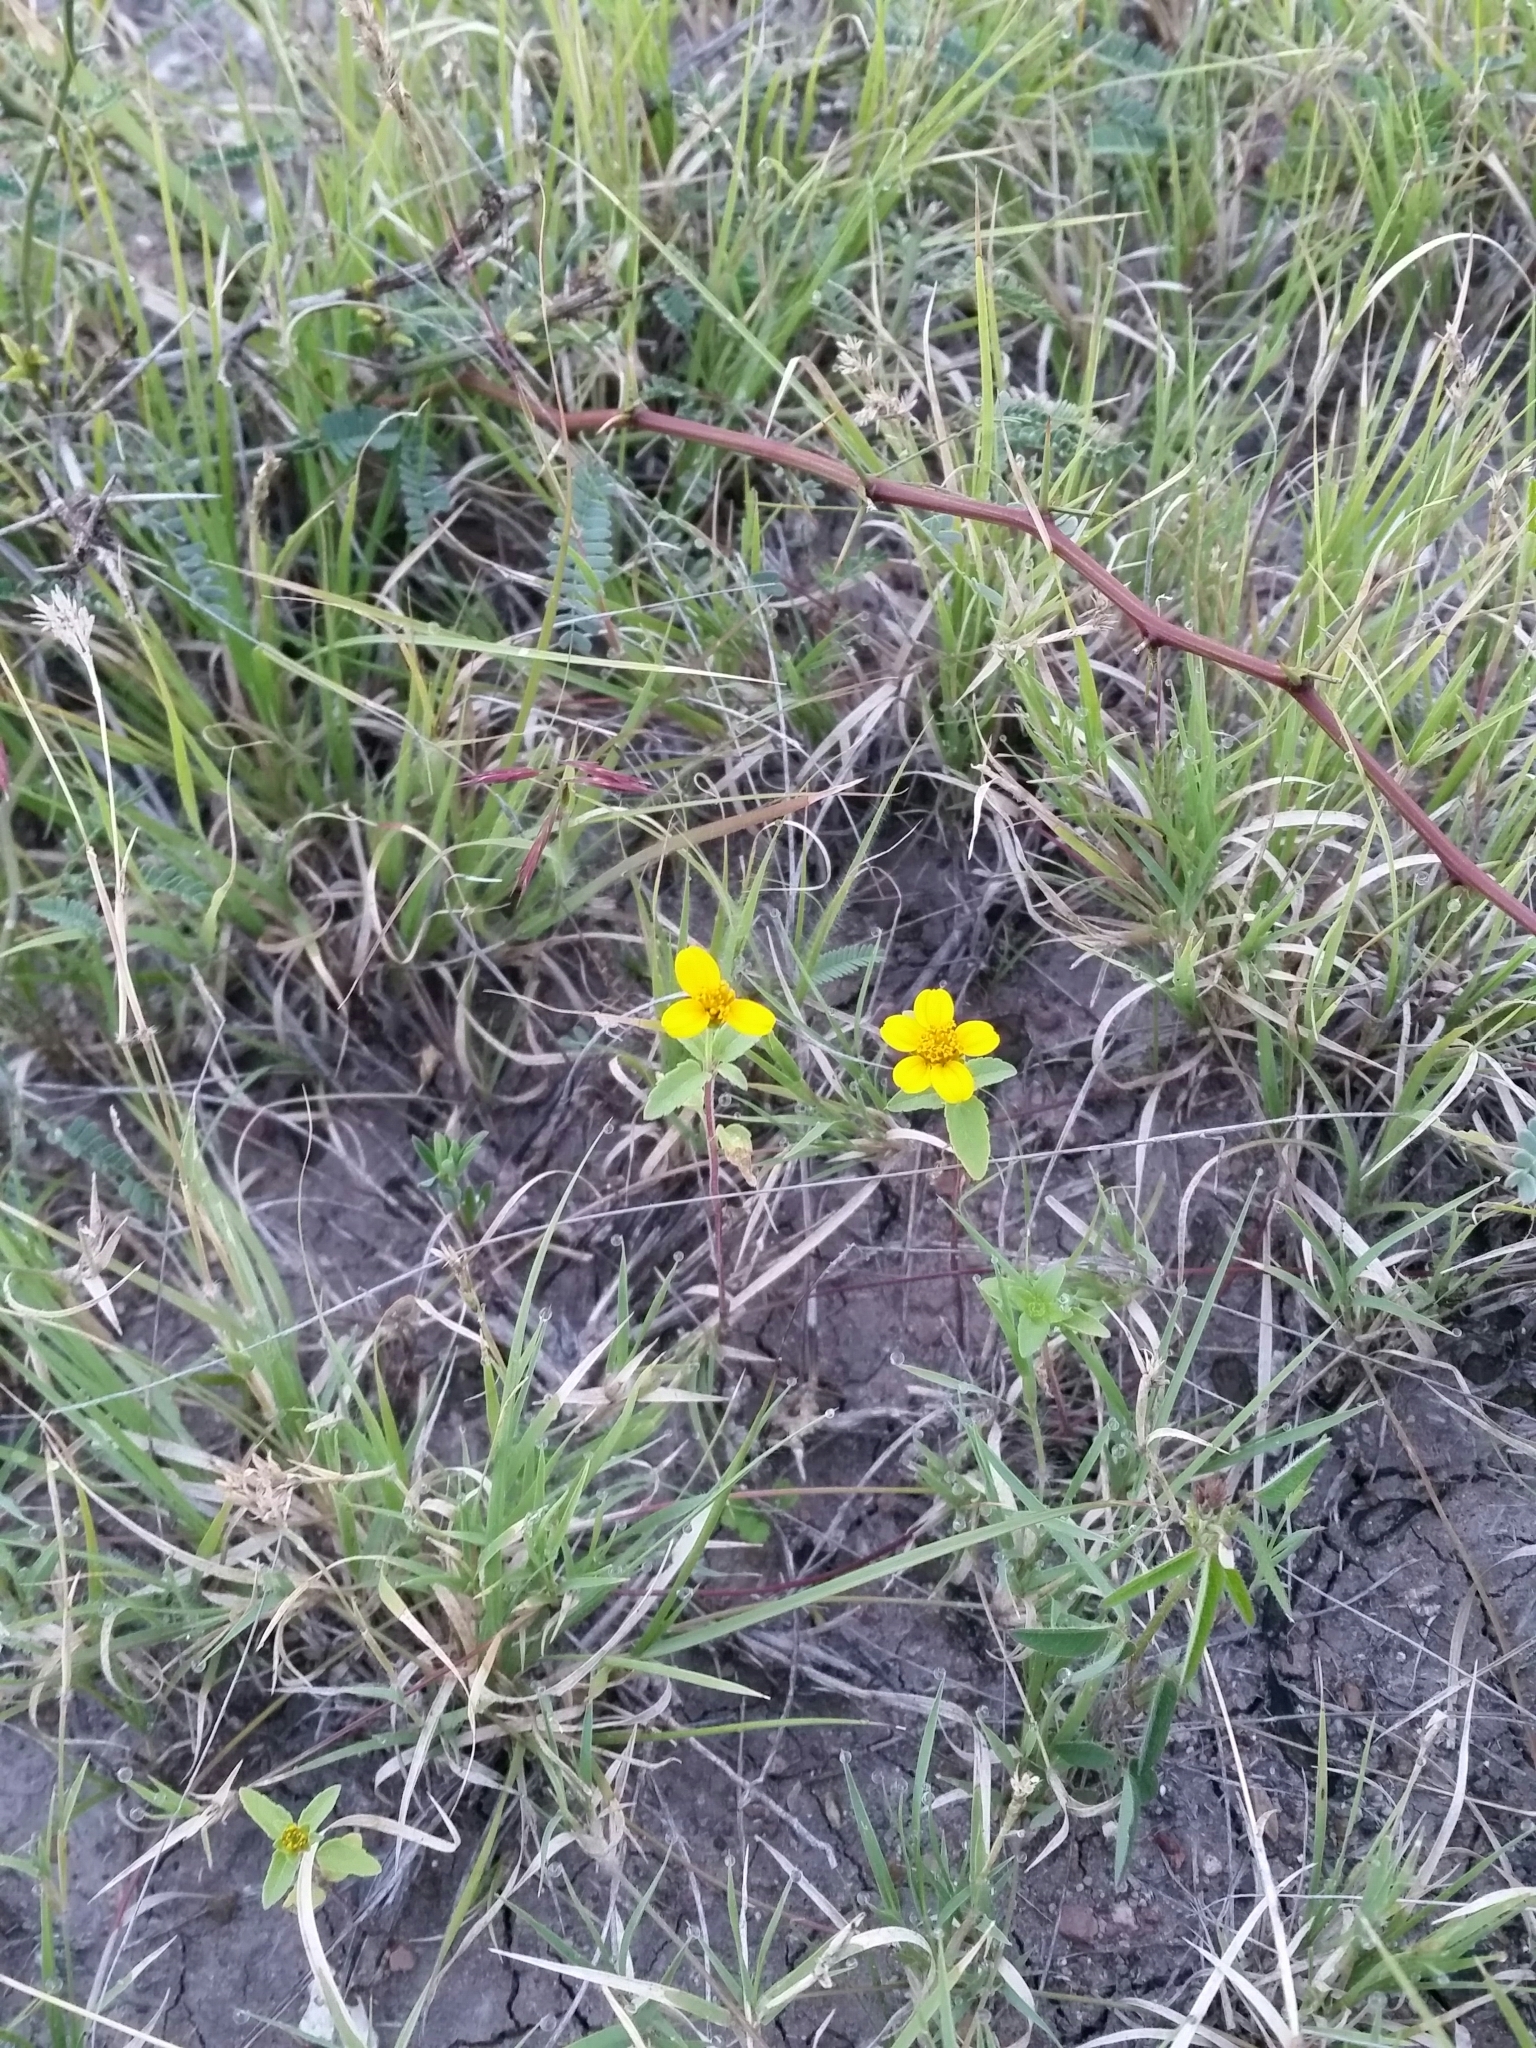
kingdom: Plantae
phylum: Tracheophyta
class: Magnoliopsida
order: Asterales
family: Asteraceae
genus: Heliopsis
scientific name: Heliopsis annua
